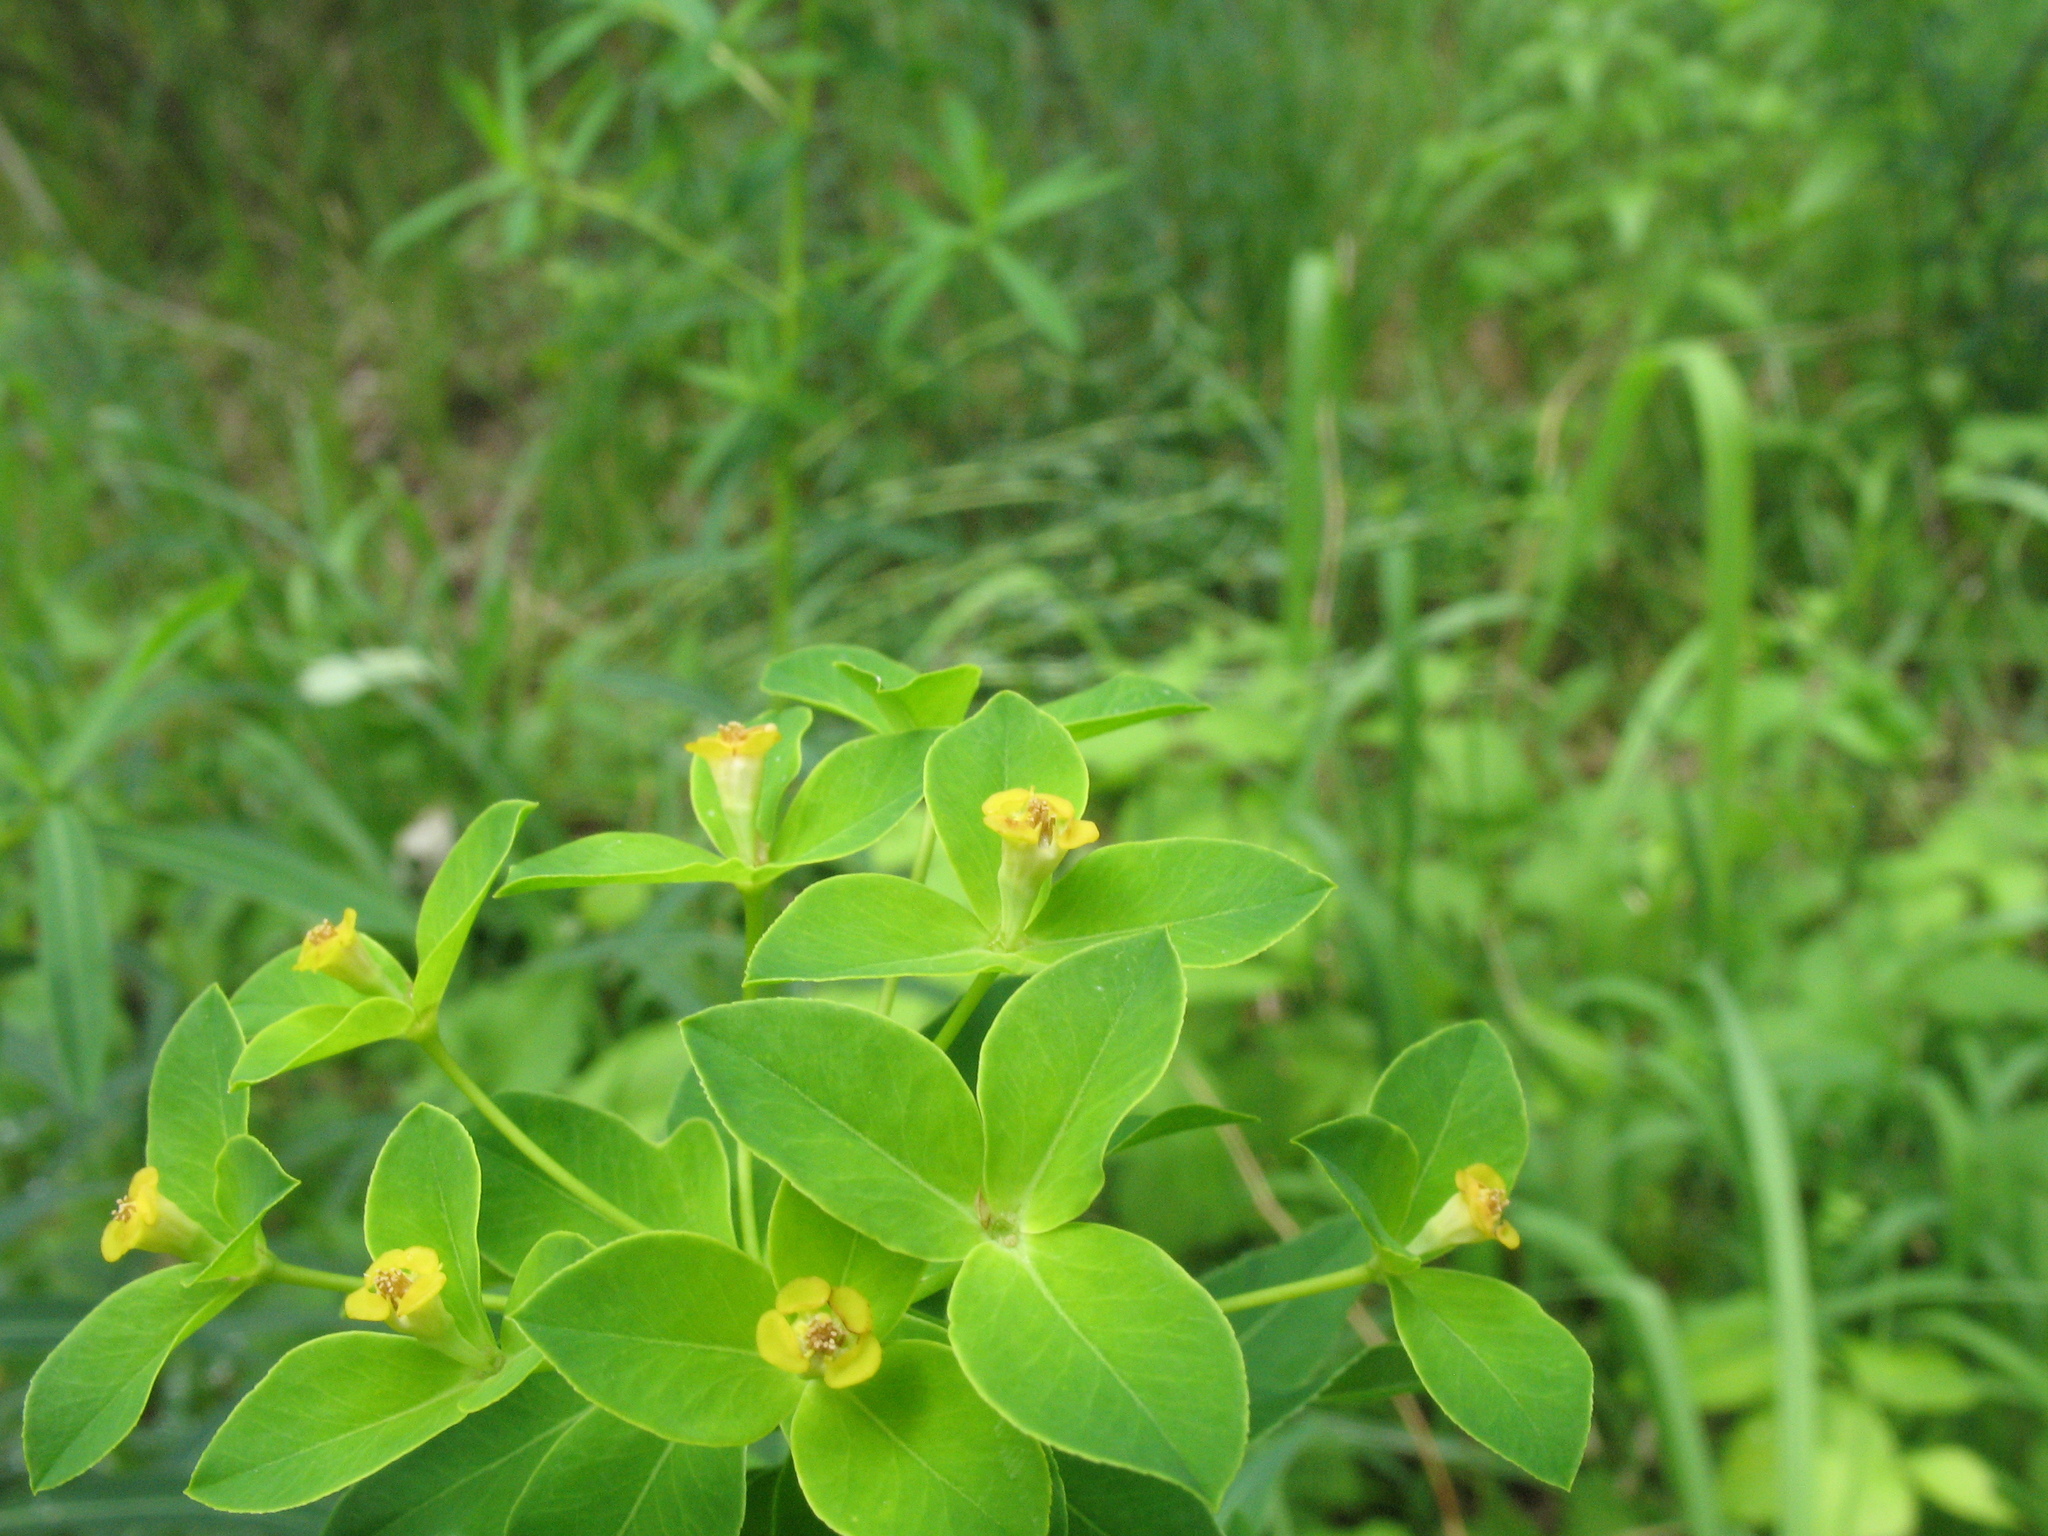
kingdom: Plantae
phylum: Tracheophyta
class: Magnoliopsida
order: Malpighiales
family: Euphorbiaceae
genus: Euphorbia
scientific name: Euphorbia semivillosa
